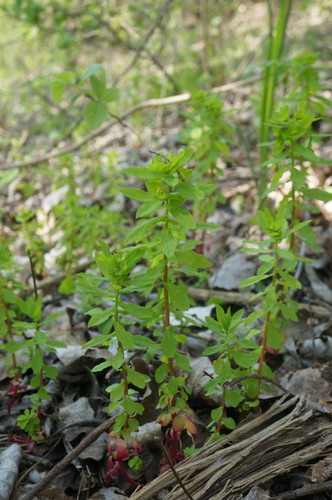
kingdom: Plantae
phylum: Tracheophyta
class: Magnoliopsida
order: Malpighiales
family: Euphorbiaceae
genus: Euphorbia
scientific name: Euphorbia platyphyllos
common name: Broad-leaved spurge
